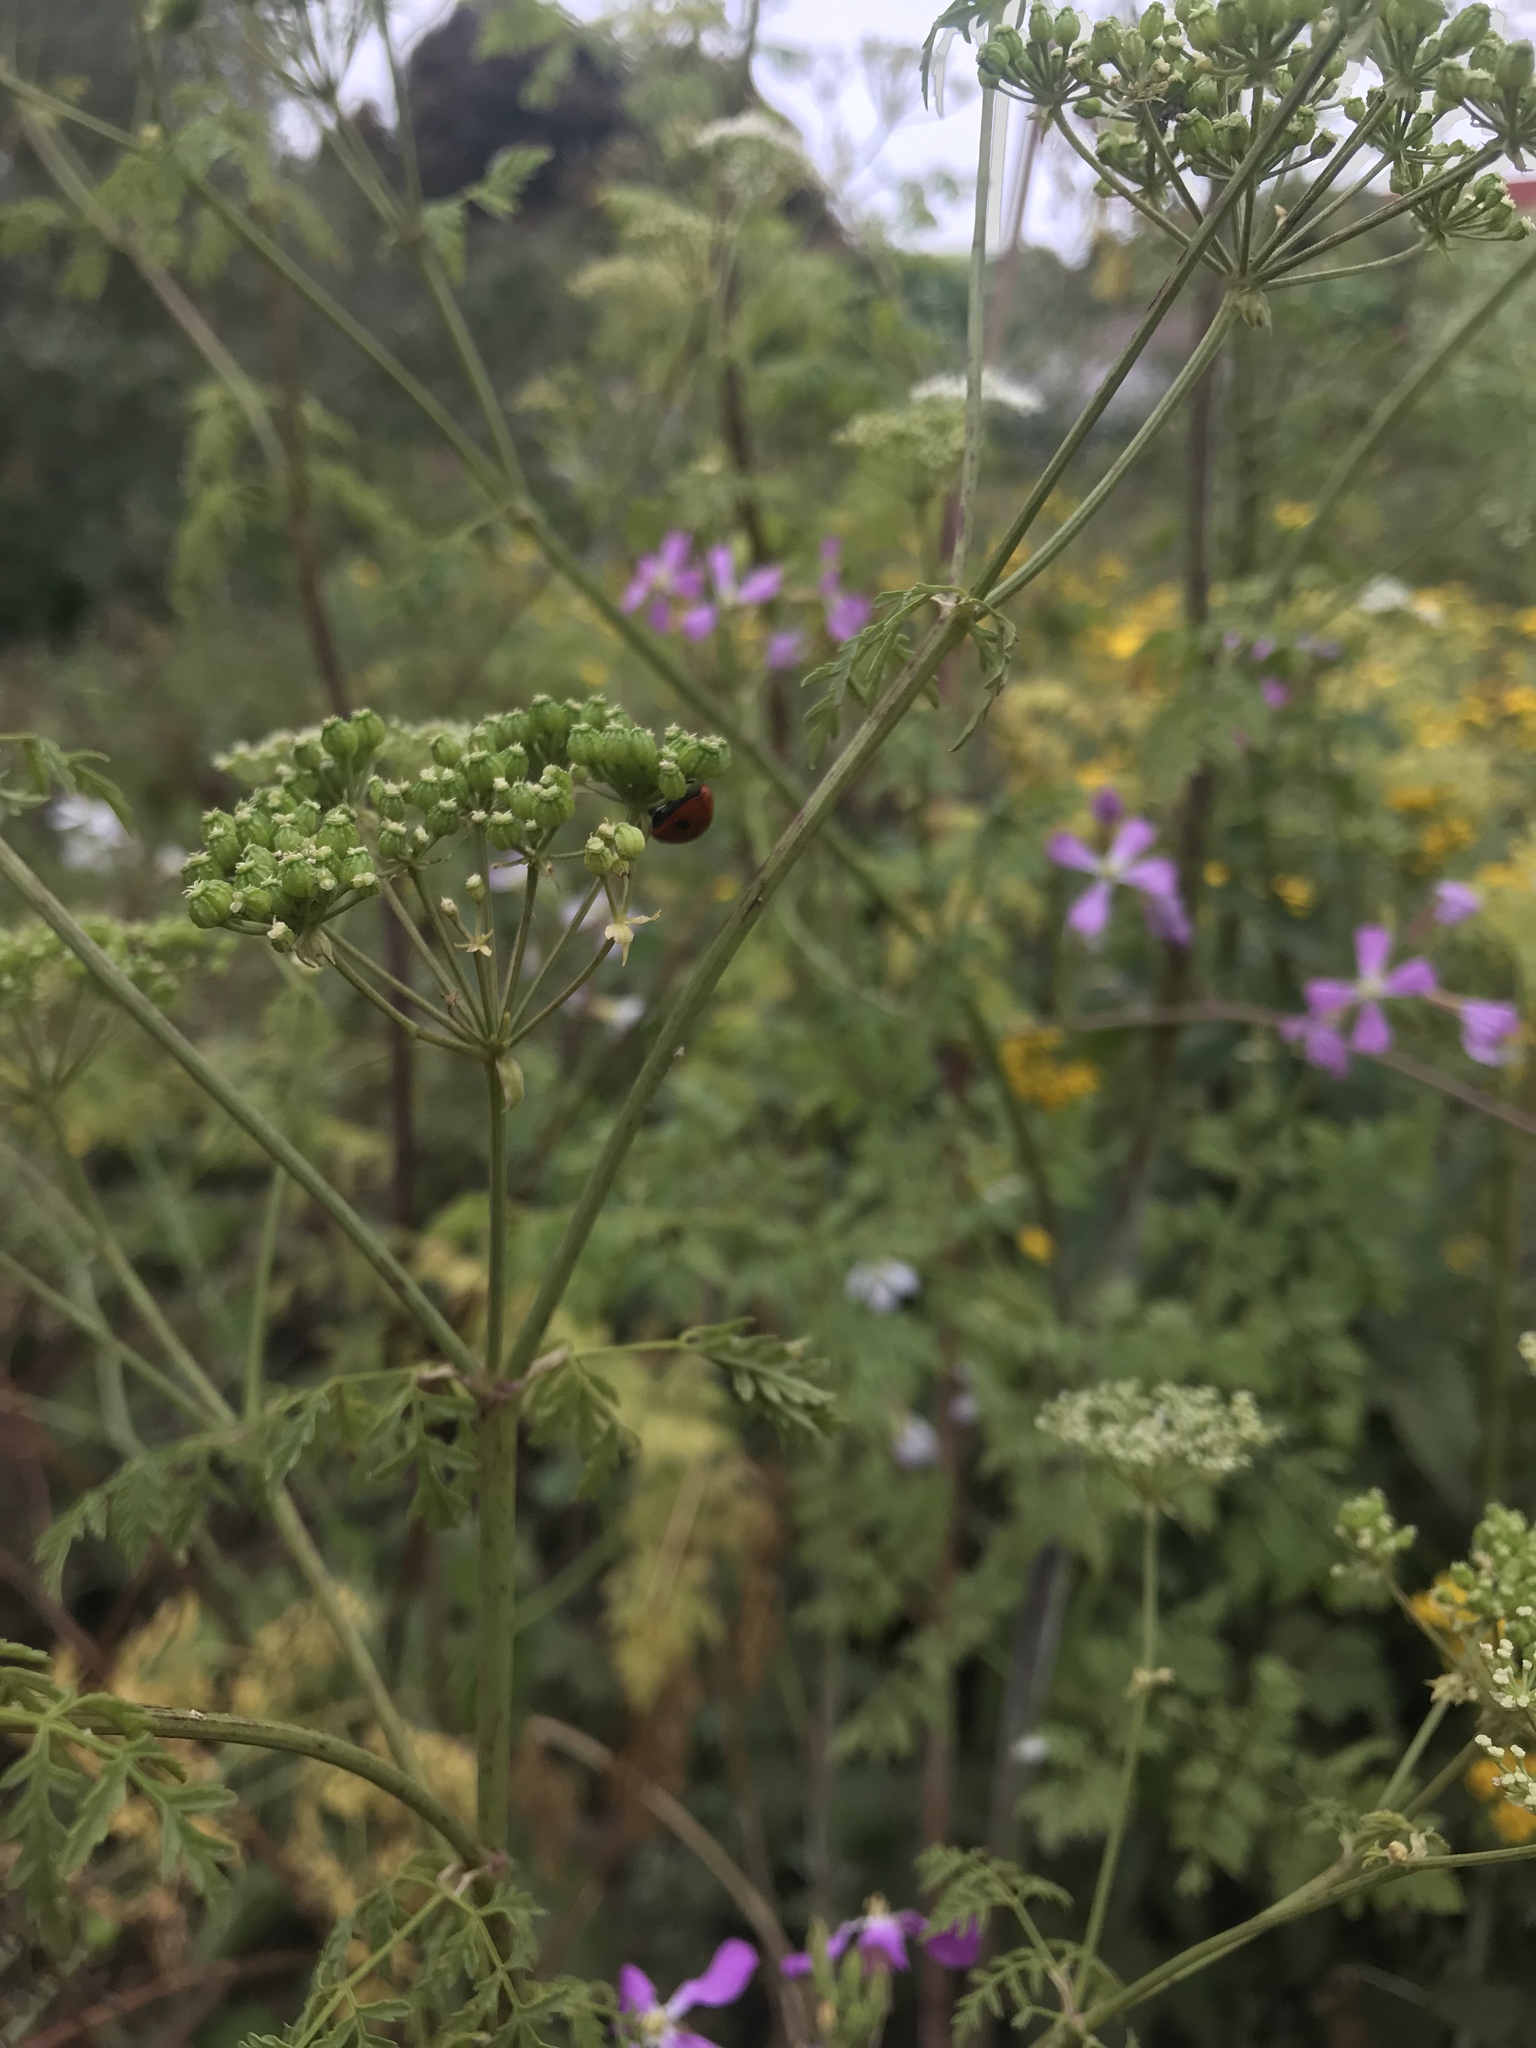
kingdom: Animalia
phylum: Arthropoda
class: Insecta
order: Coleoptera
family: Coccinellidae
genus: Coccinella
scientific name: Coccinella septempunctata
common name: Sevenspotted lady beetle
